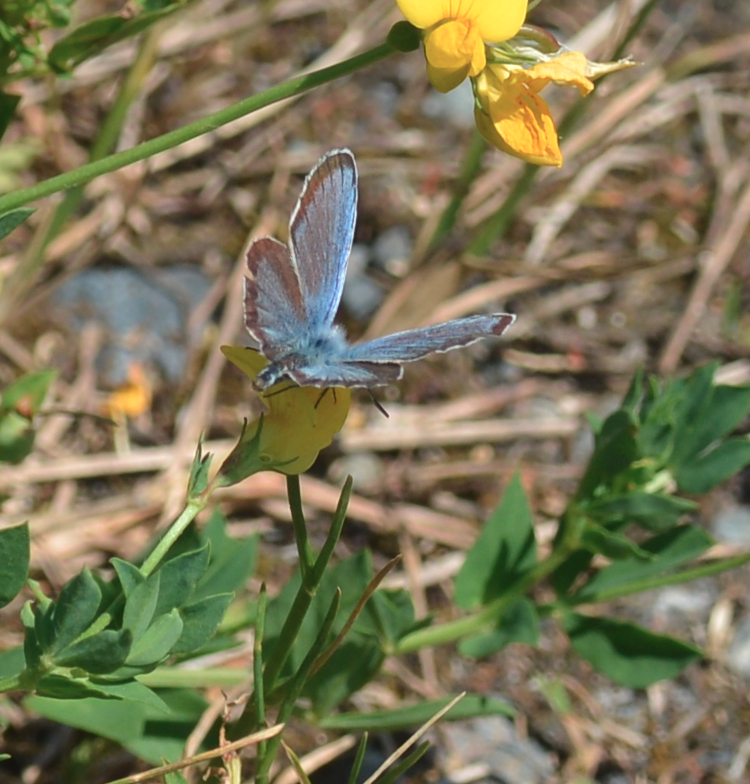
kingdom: Animalia
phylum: Arthropoda
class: Insecta
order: Lepidoptera
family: Lycaenidae
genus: Plebejus
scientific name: Plebejus argus
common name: Silver-studded blue
